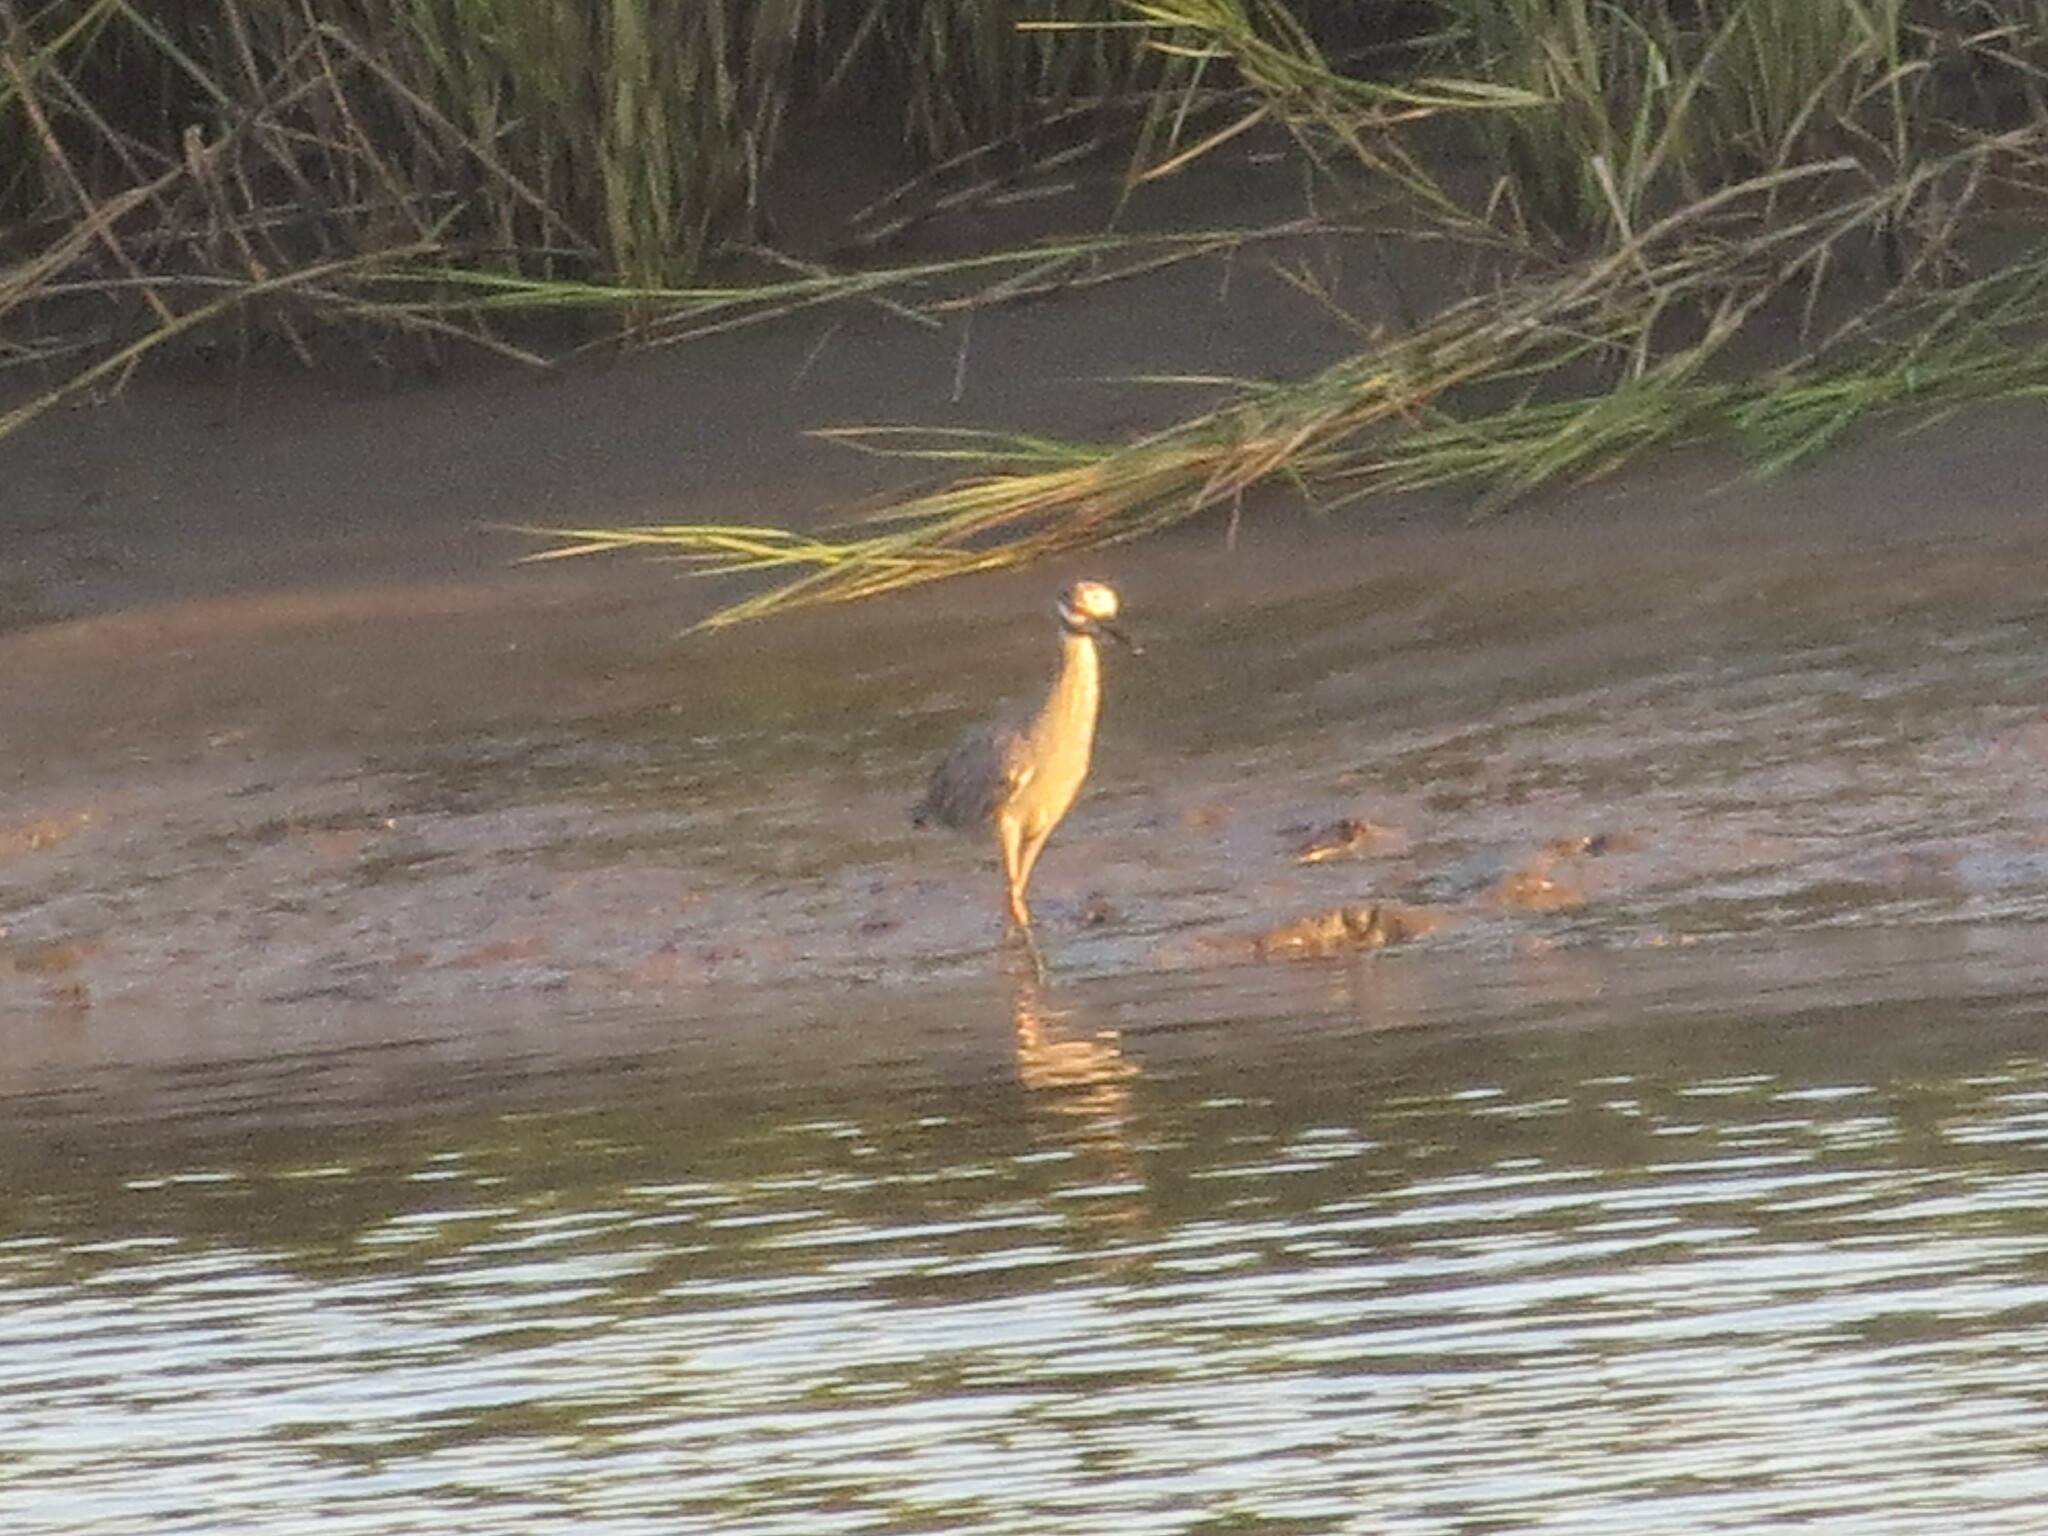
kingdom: Animalia
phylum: Chordata
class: Aves
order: Pelecaniformes
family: Ardeidae
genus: Nyctanassa
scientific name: Nyctanassa violacea
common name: Yellow-crowned night heron
